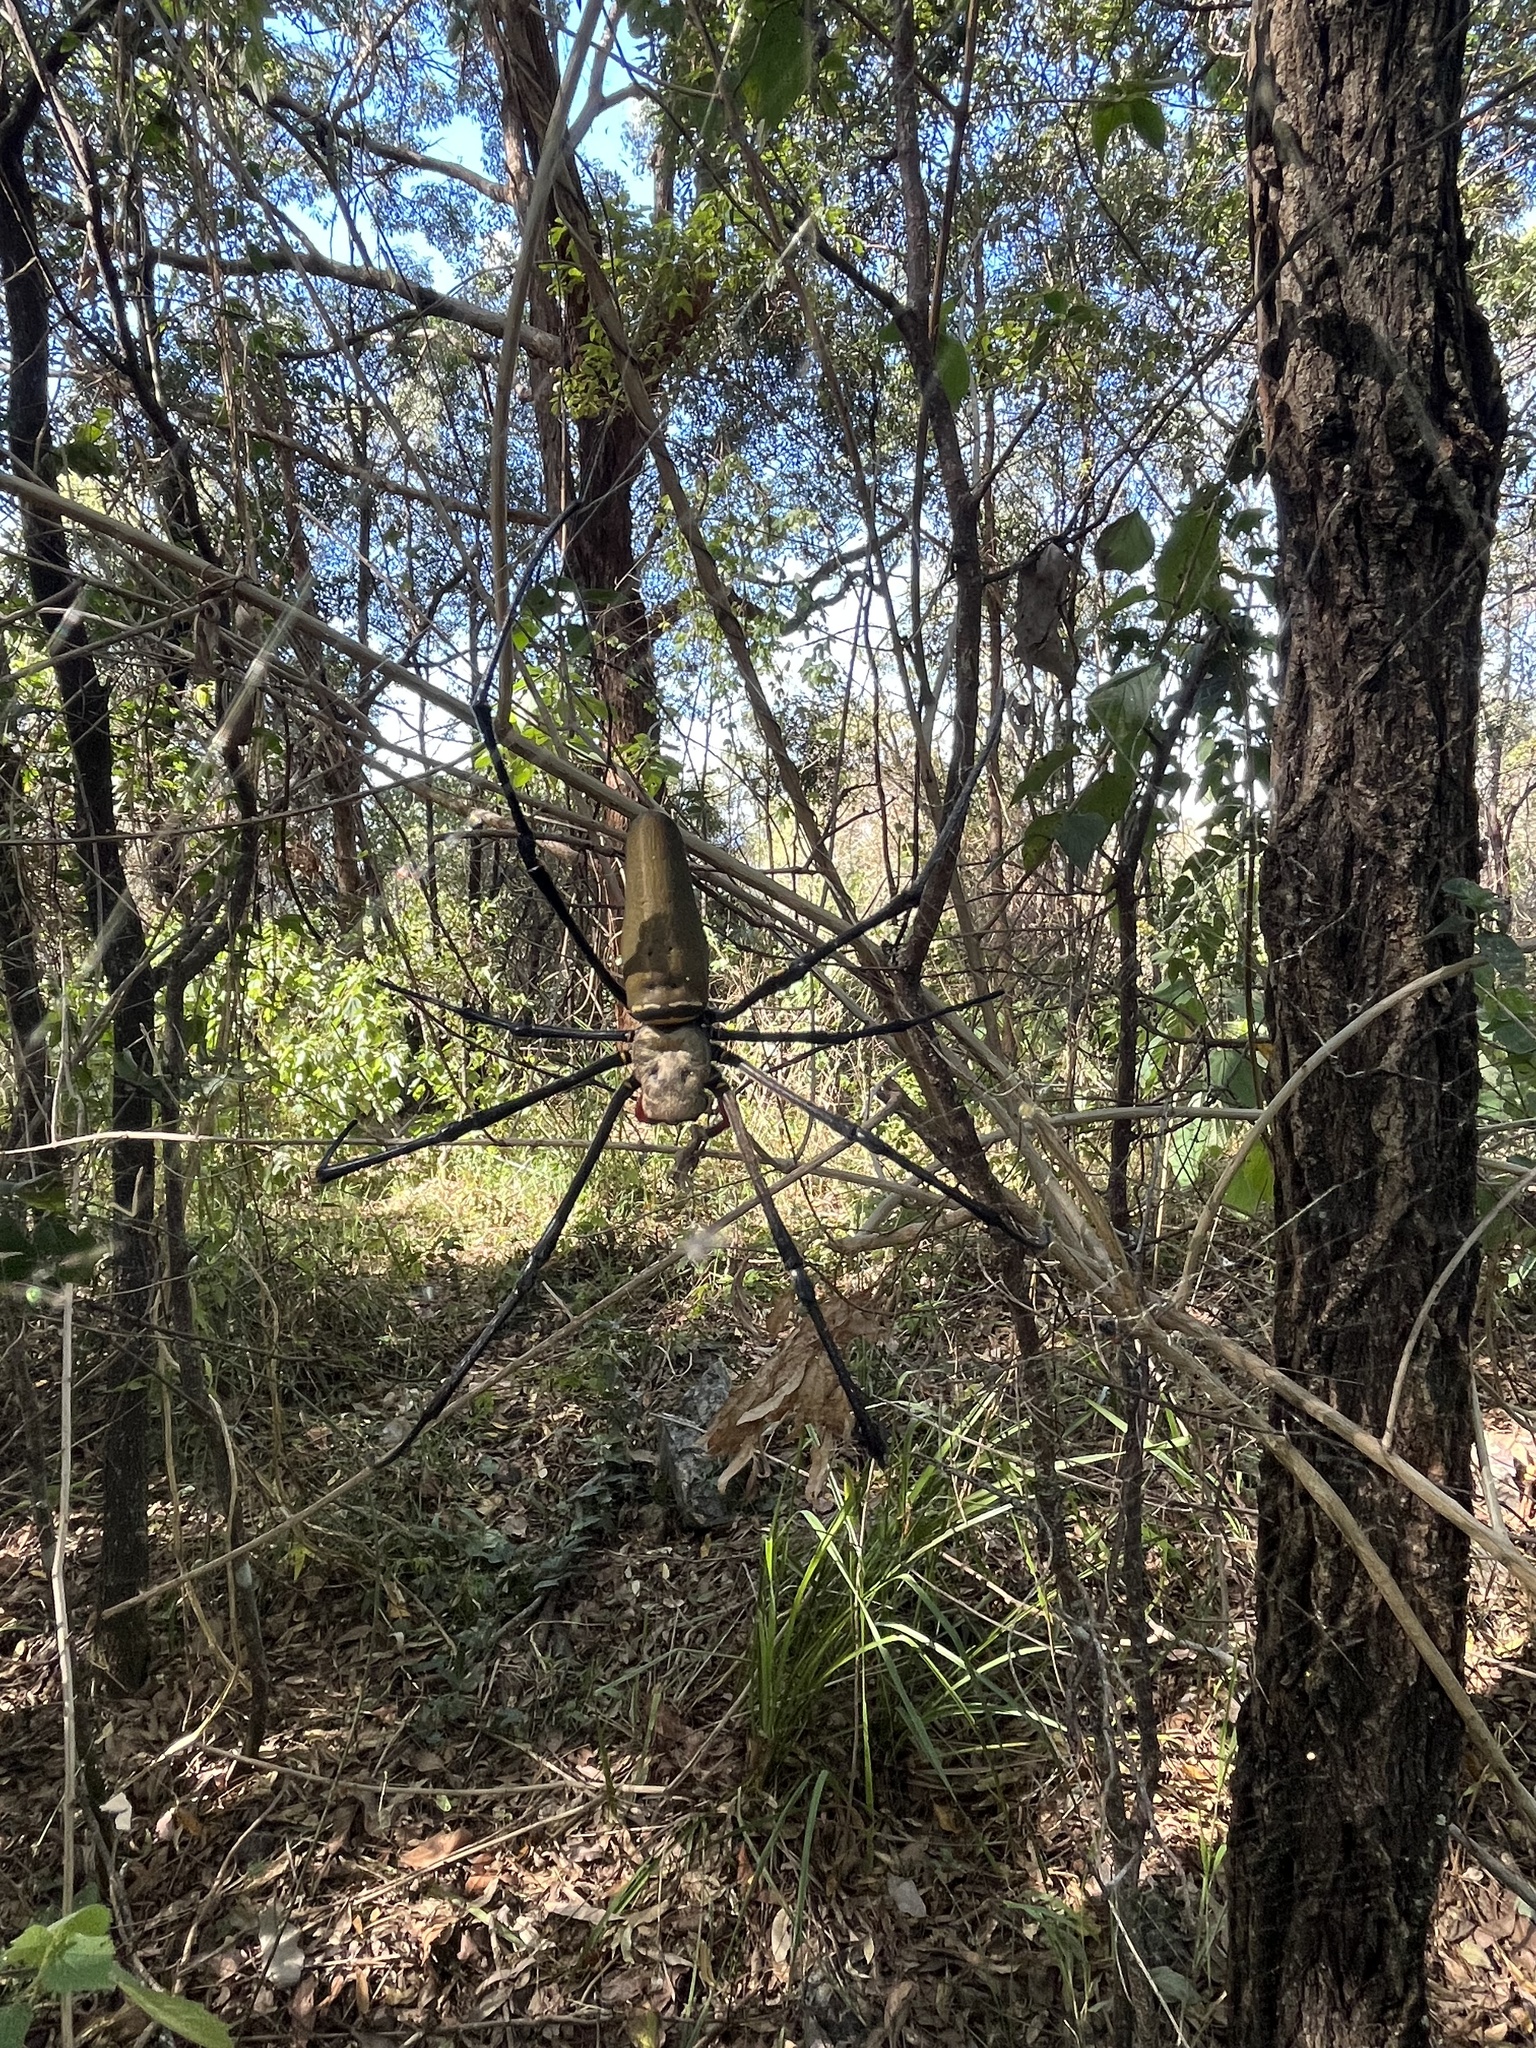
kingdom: Animalia
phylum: Arthropoda
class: Arachnida
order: Araneae
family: Araneidae
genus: Nephila
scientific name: Nephila pilipes
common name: Giant golden orb weaver
